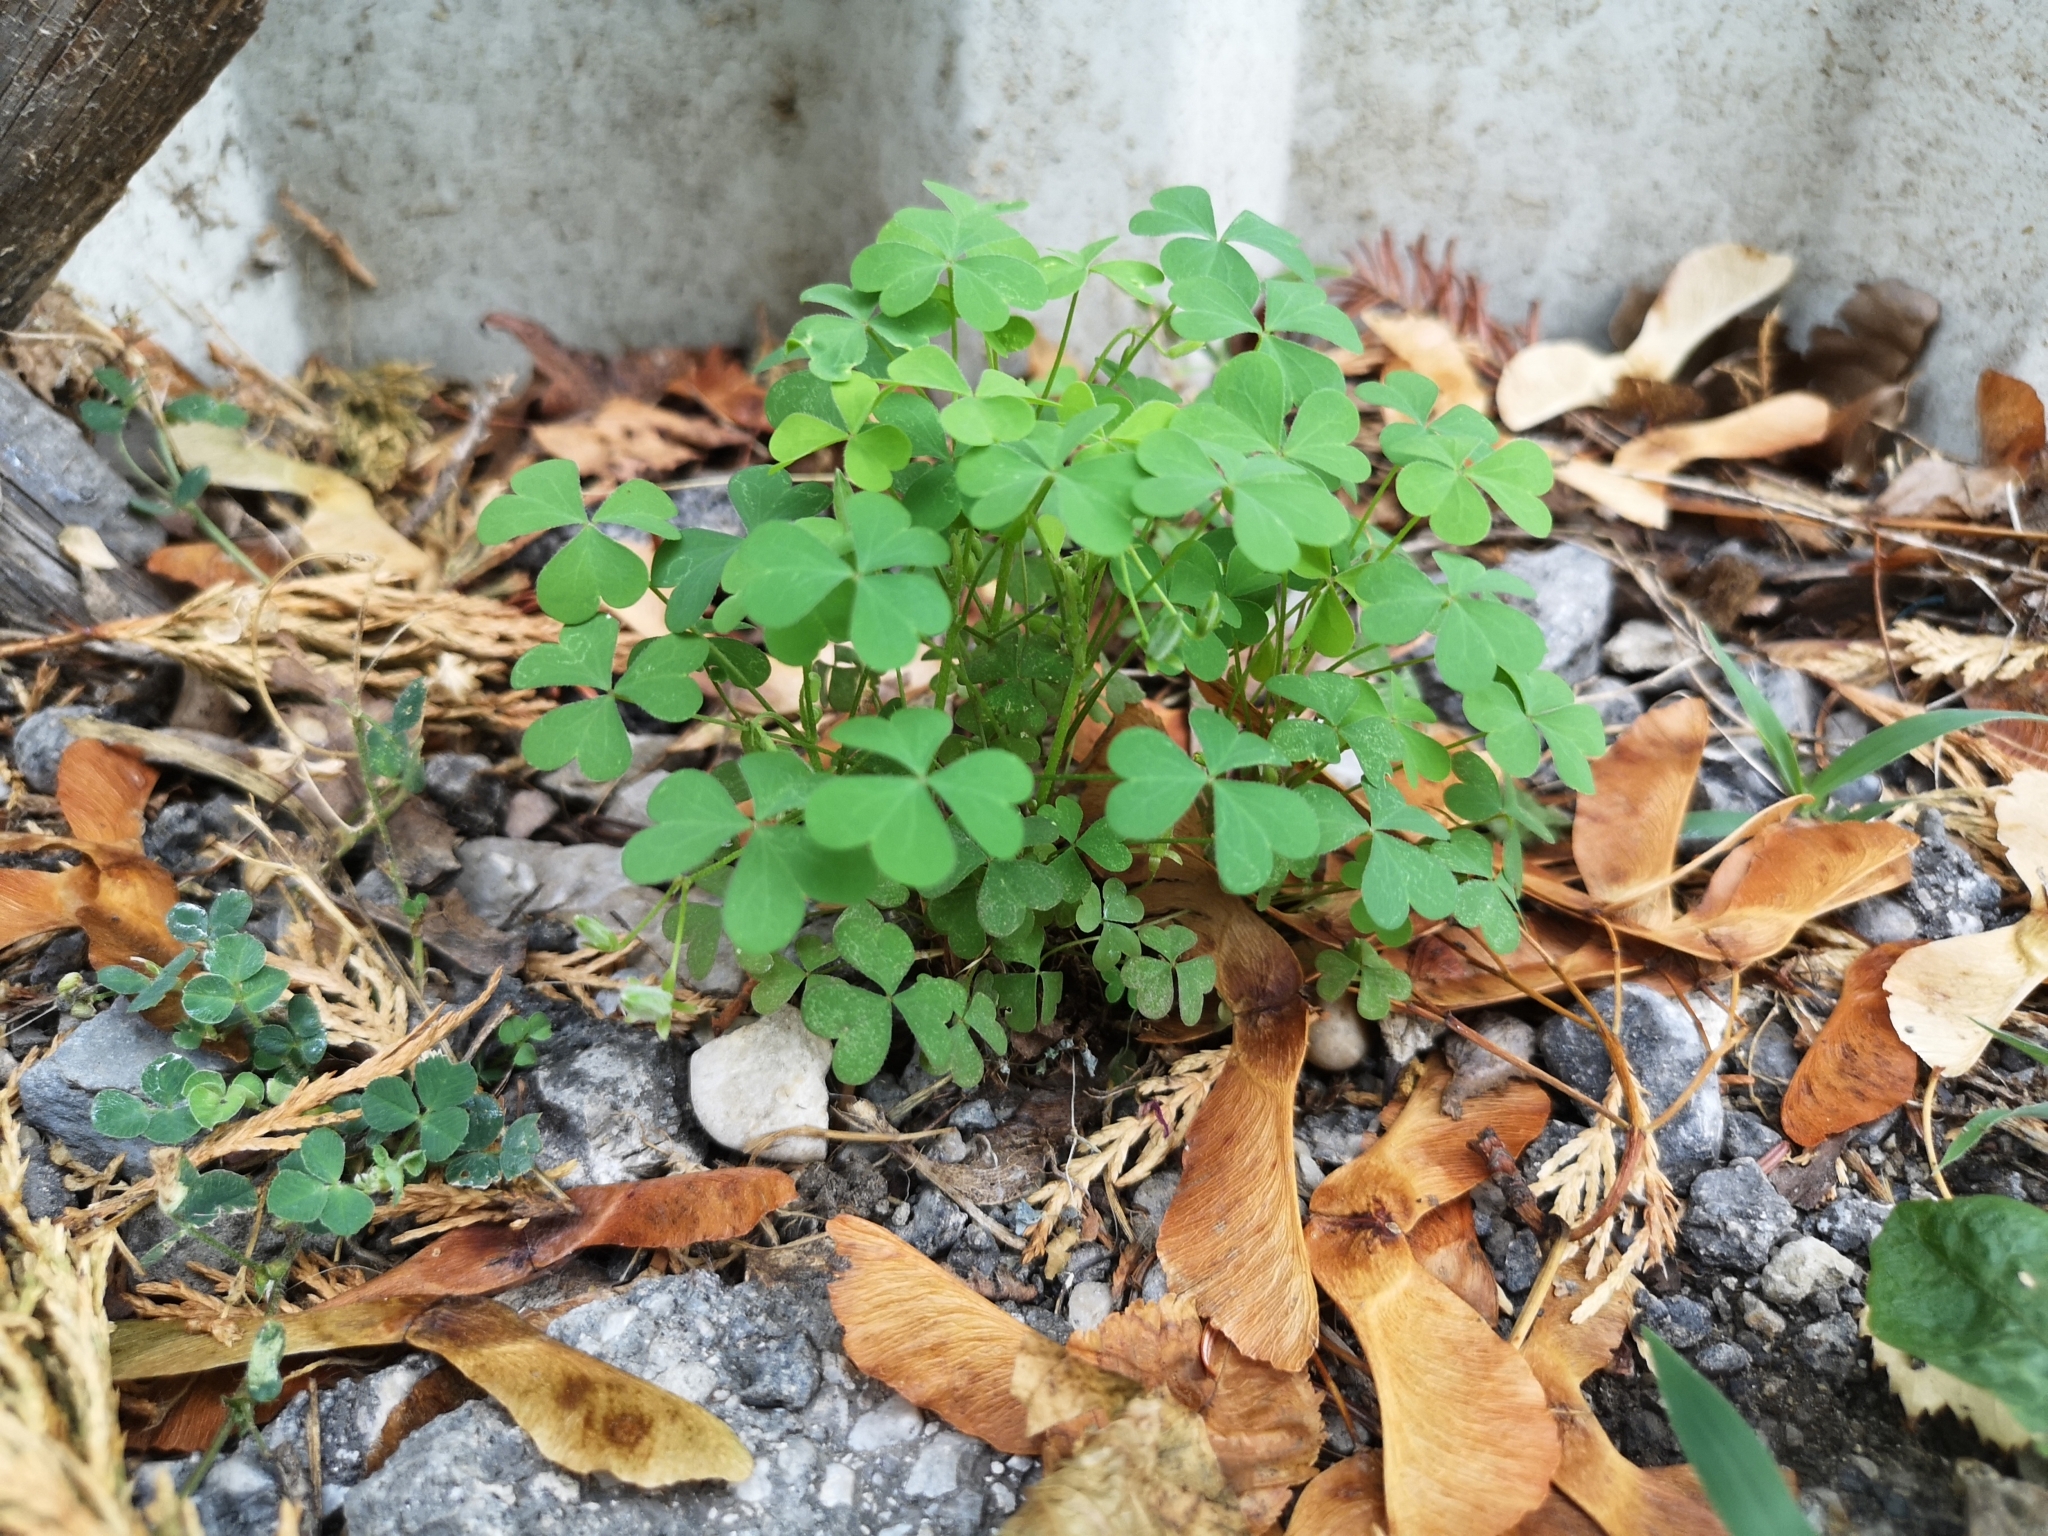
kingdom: Plantae
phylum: Tracheophyta
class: Magnoliopsida
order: Oxalidales
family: Oxalidaceae
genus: Oxalis
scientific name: Oxalis dillenii
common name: Sussex yellow-sorrel
